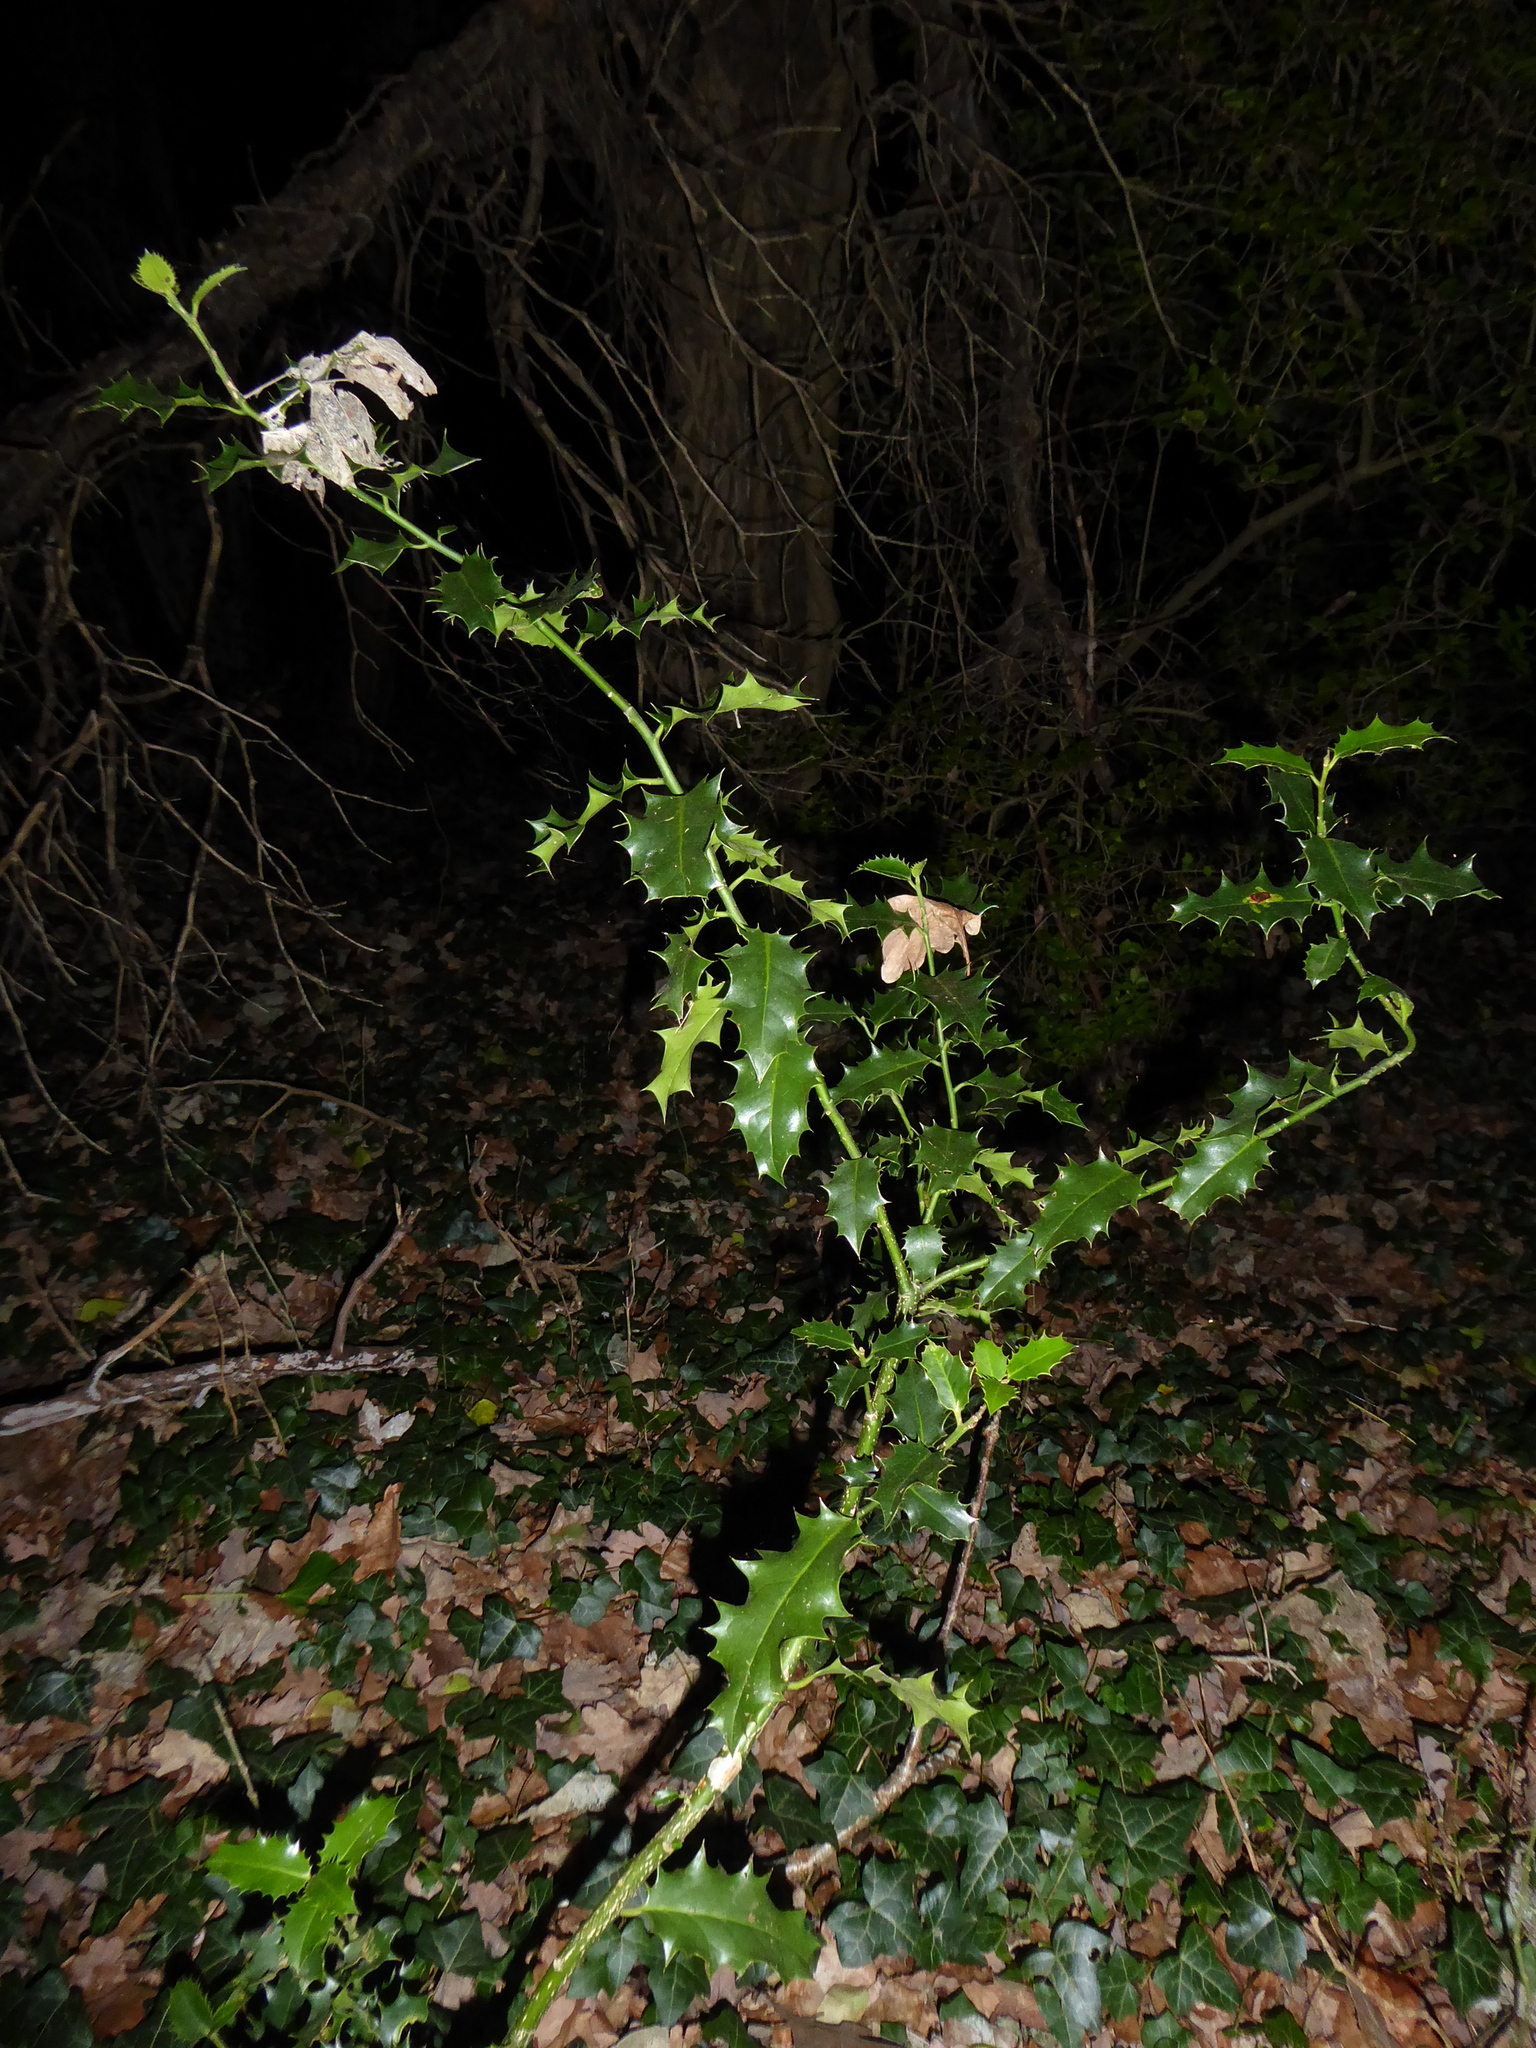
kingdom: Plantae
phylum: Tracheophyta
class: Magnoliopsida
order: Aquifoliales
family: Aquifoliaceae
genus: Ilex
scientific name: Ilex aquifolium
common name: English holly
